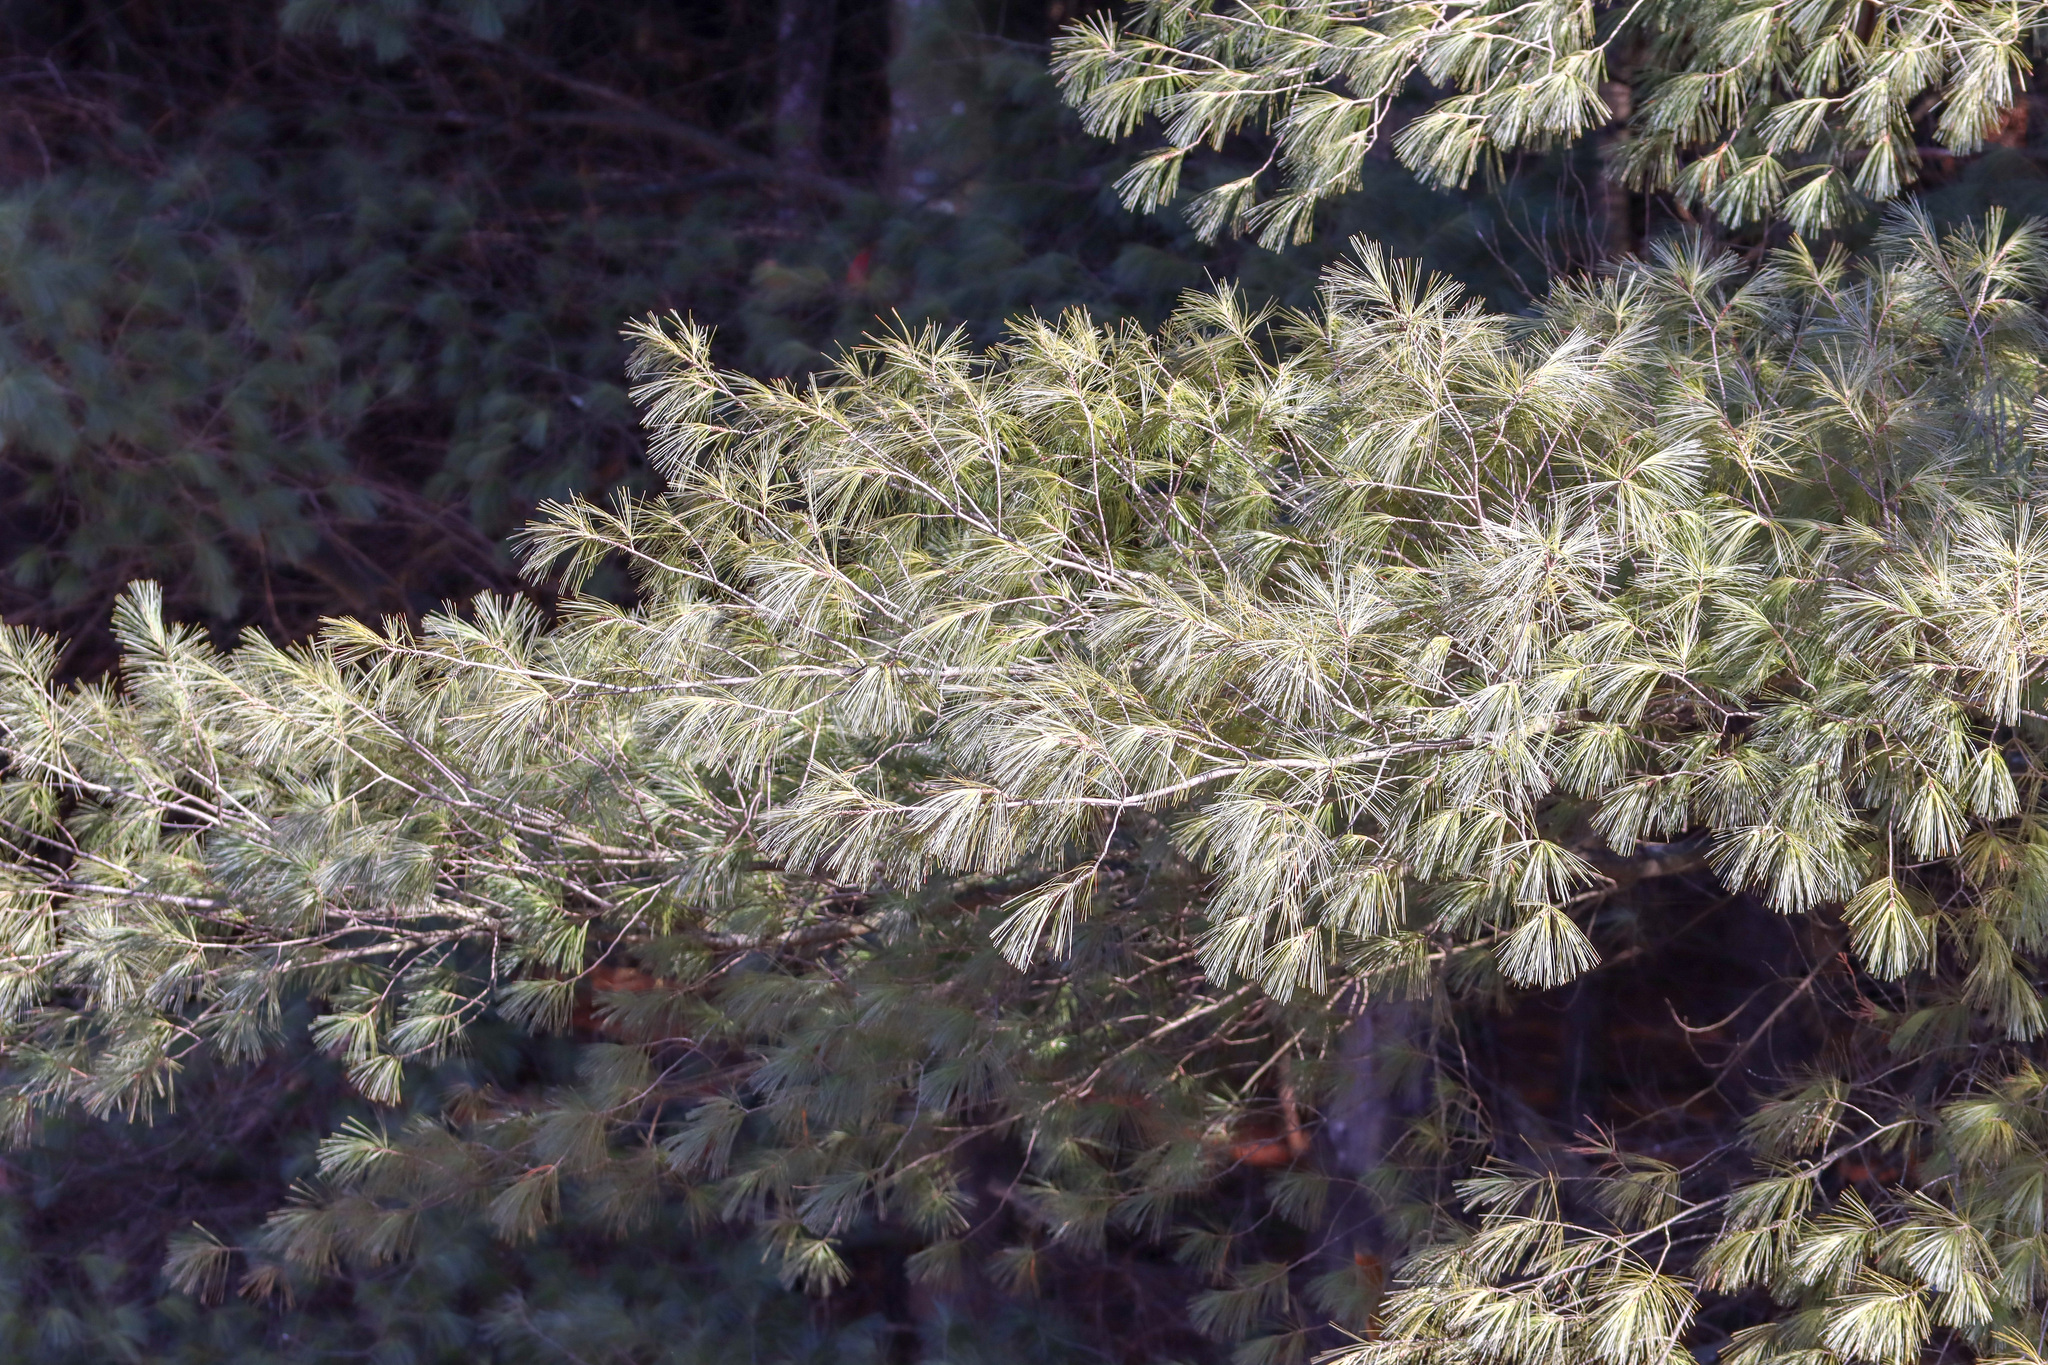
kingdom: Plantae
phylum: Tracheophyta
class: Pinopsida
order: Pinales
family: Pinaceae
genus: Pinus
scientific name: Pinus strobus
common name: Weymouth pine
